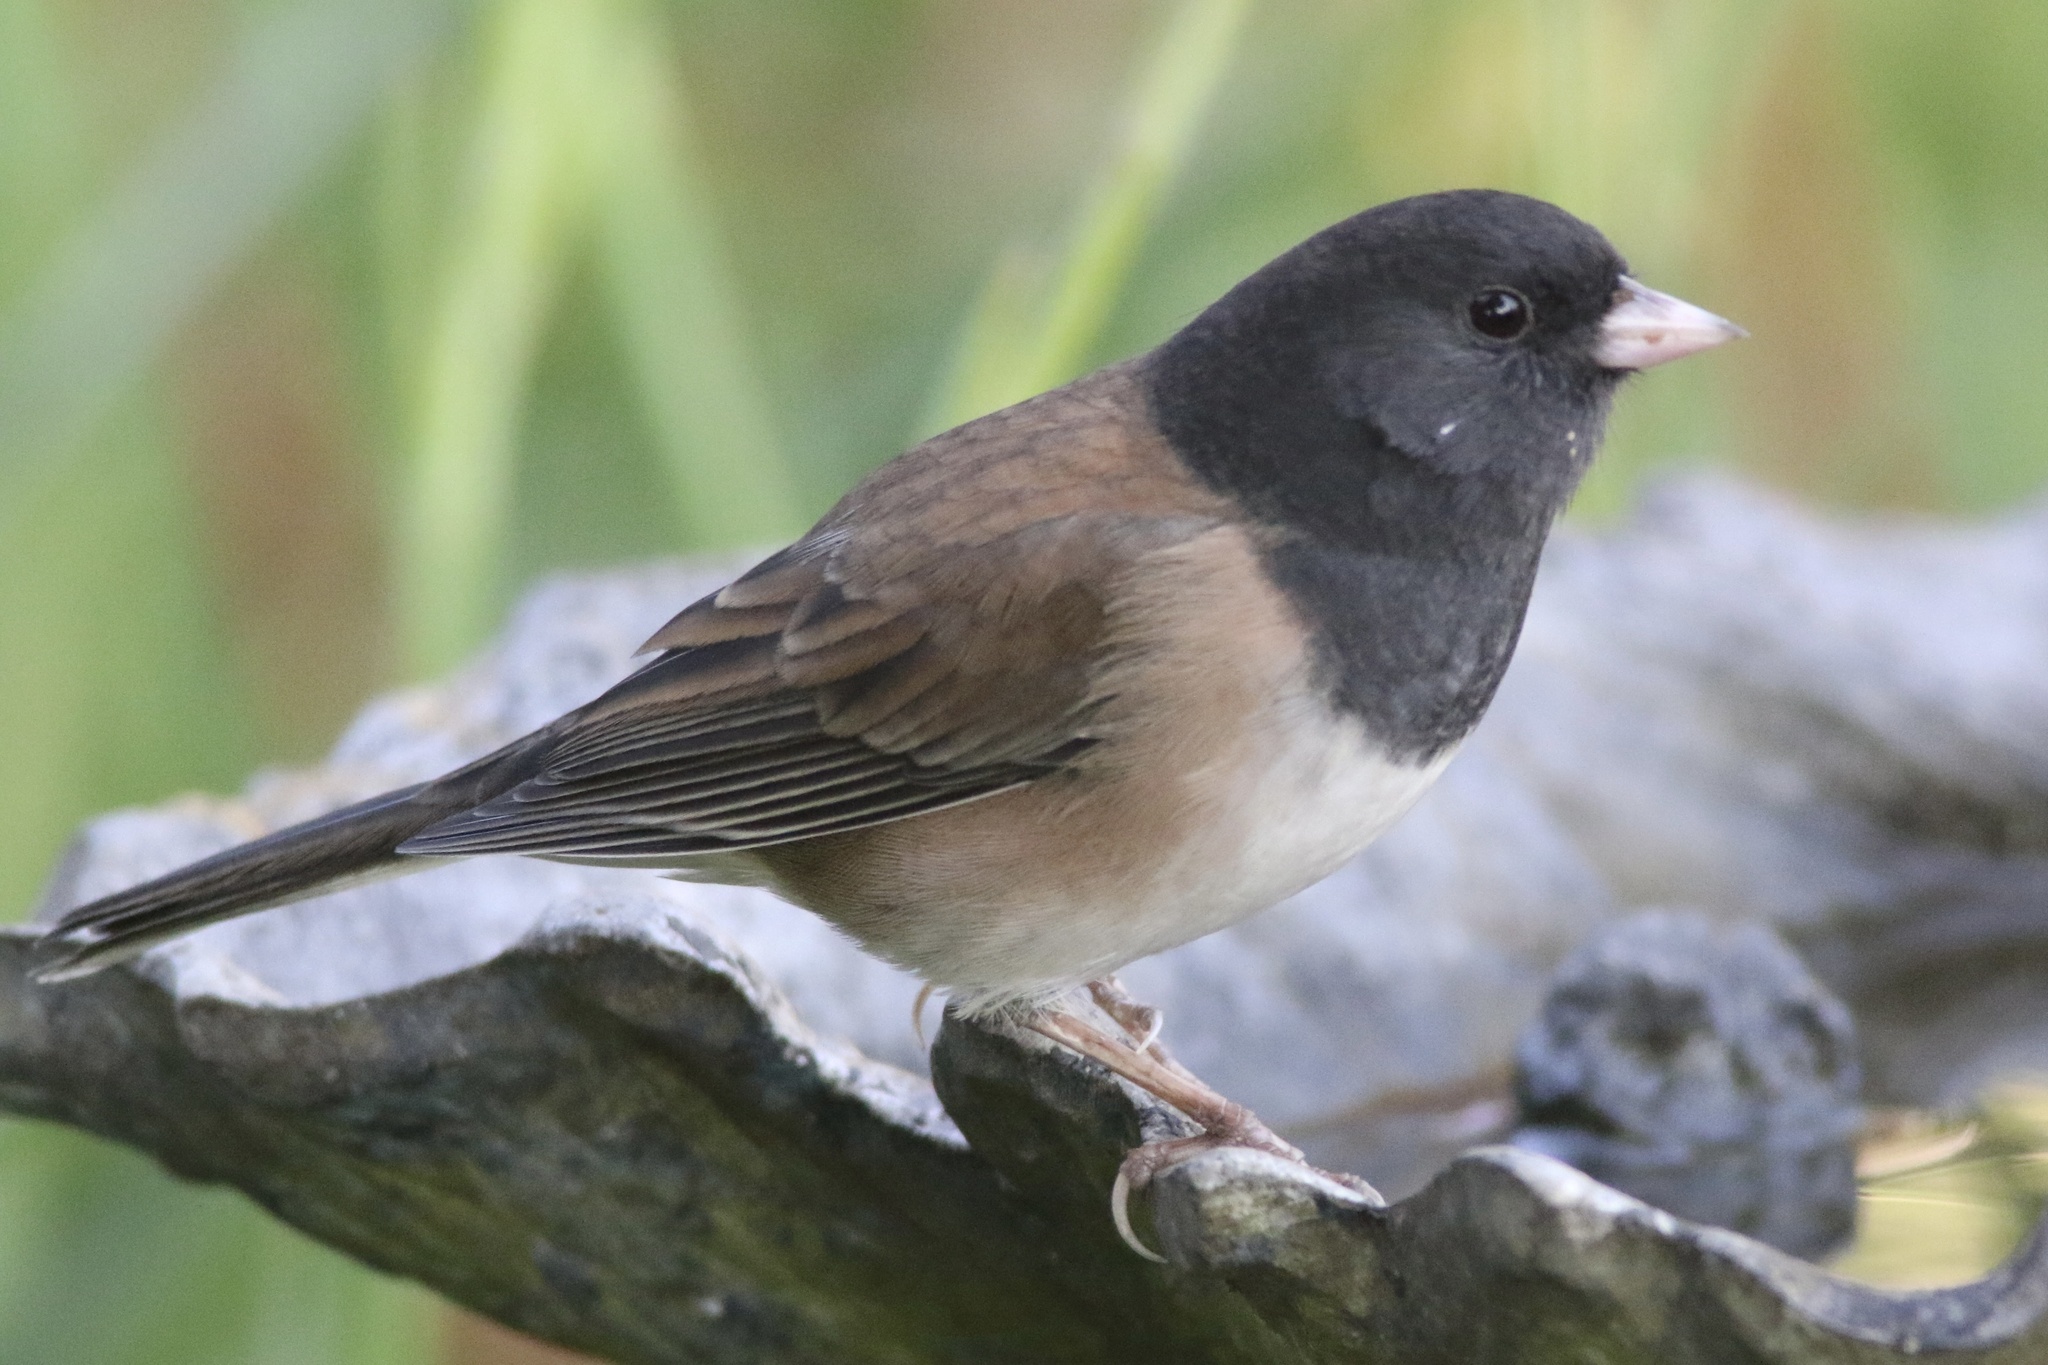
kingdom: Animalia
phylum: Chordata
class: Aves
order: Passeriformes
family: Passerellidae
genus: Junco
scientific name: Junco hyemalis
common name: Dark-eyed junco
